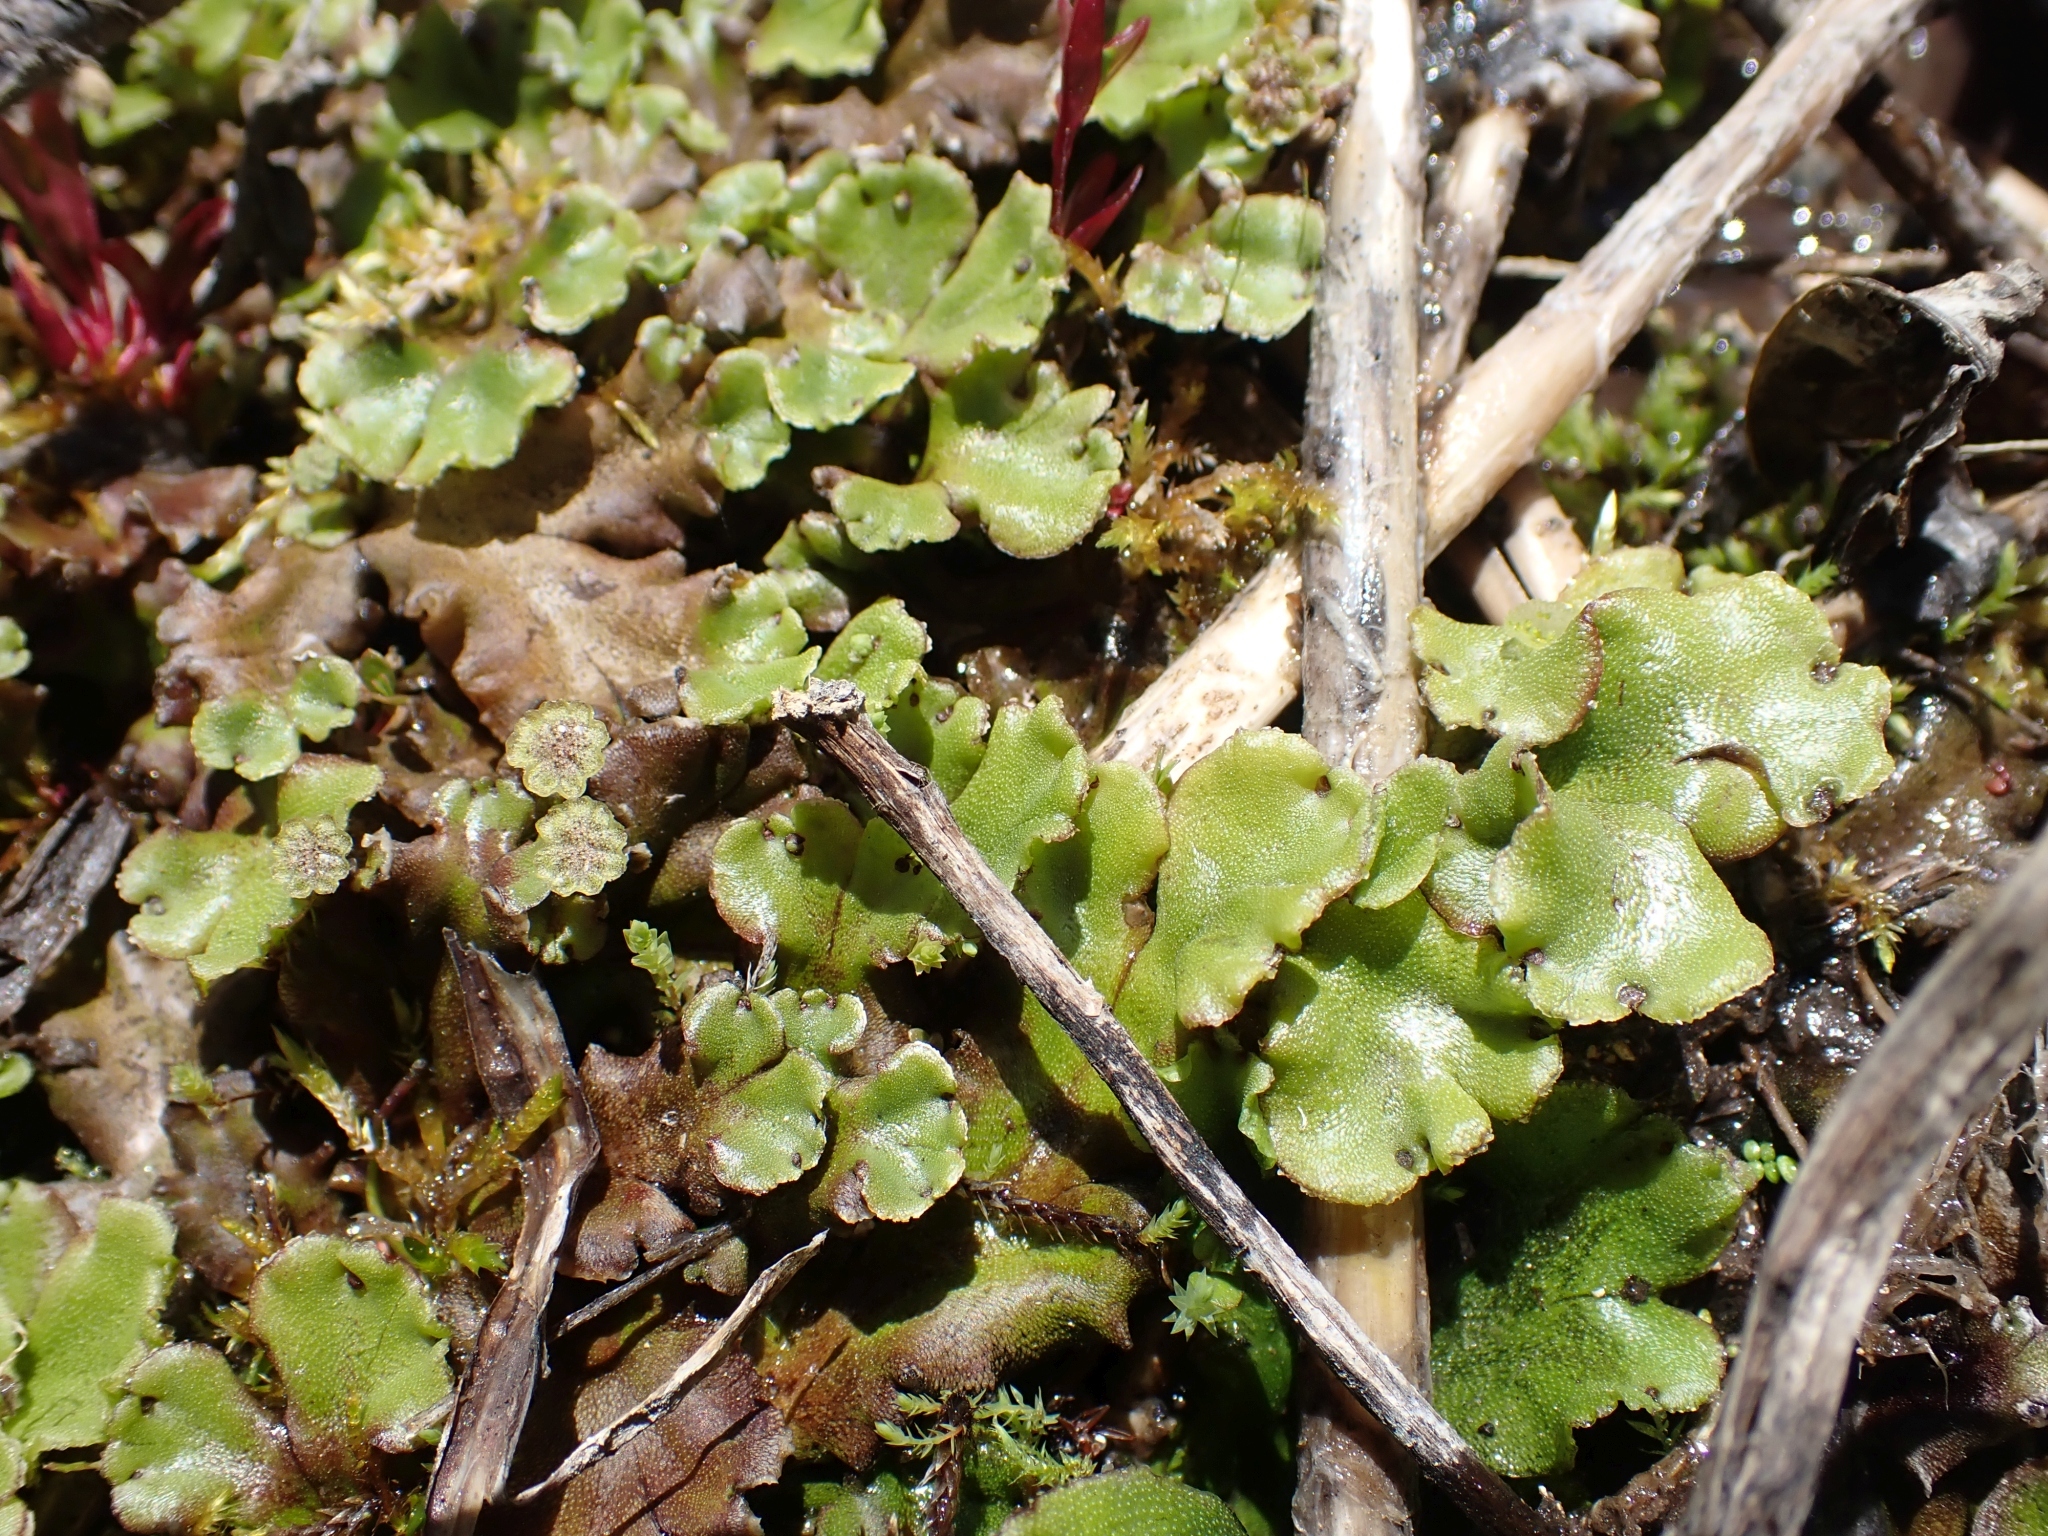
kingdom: Plantae
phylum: Marchantiophyta
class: Marchantiopsida
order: Marchantiales
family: Marchantiaceae
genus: Marchantia
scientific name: Marchantia polymorpha
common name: Common liverwort
